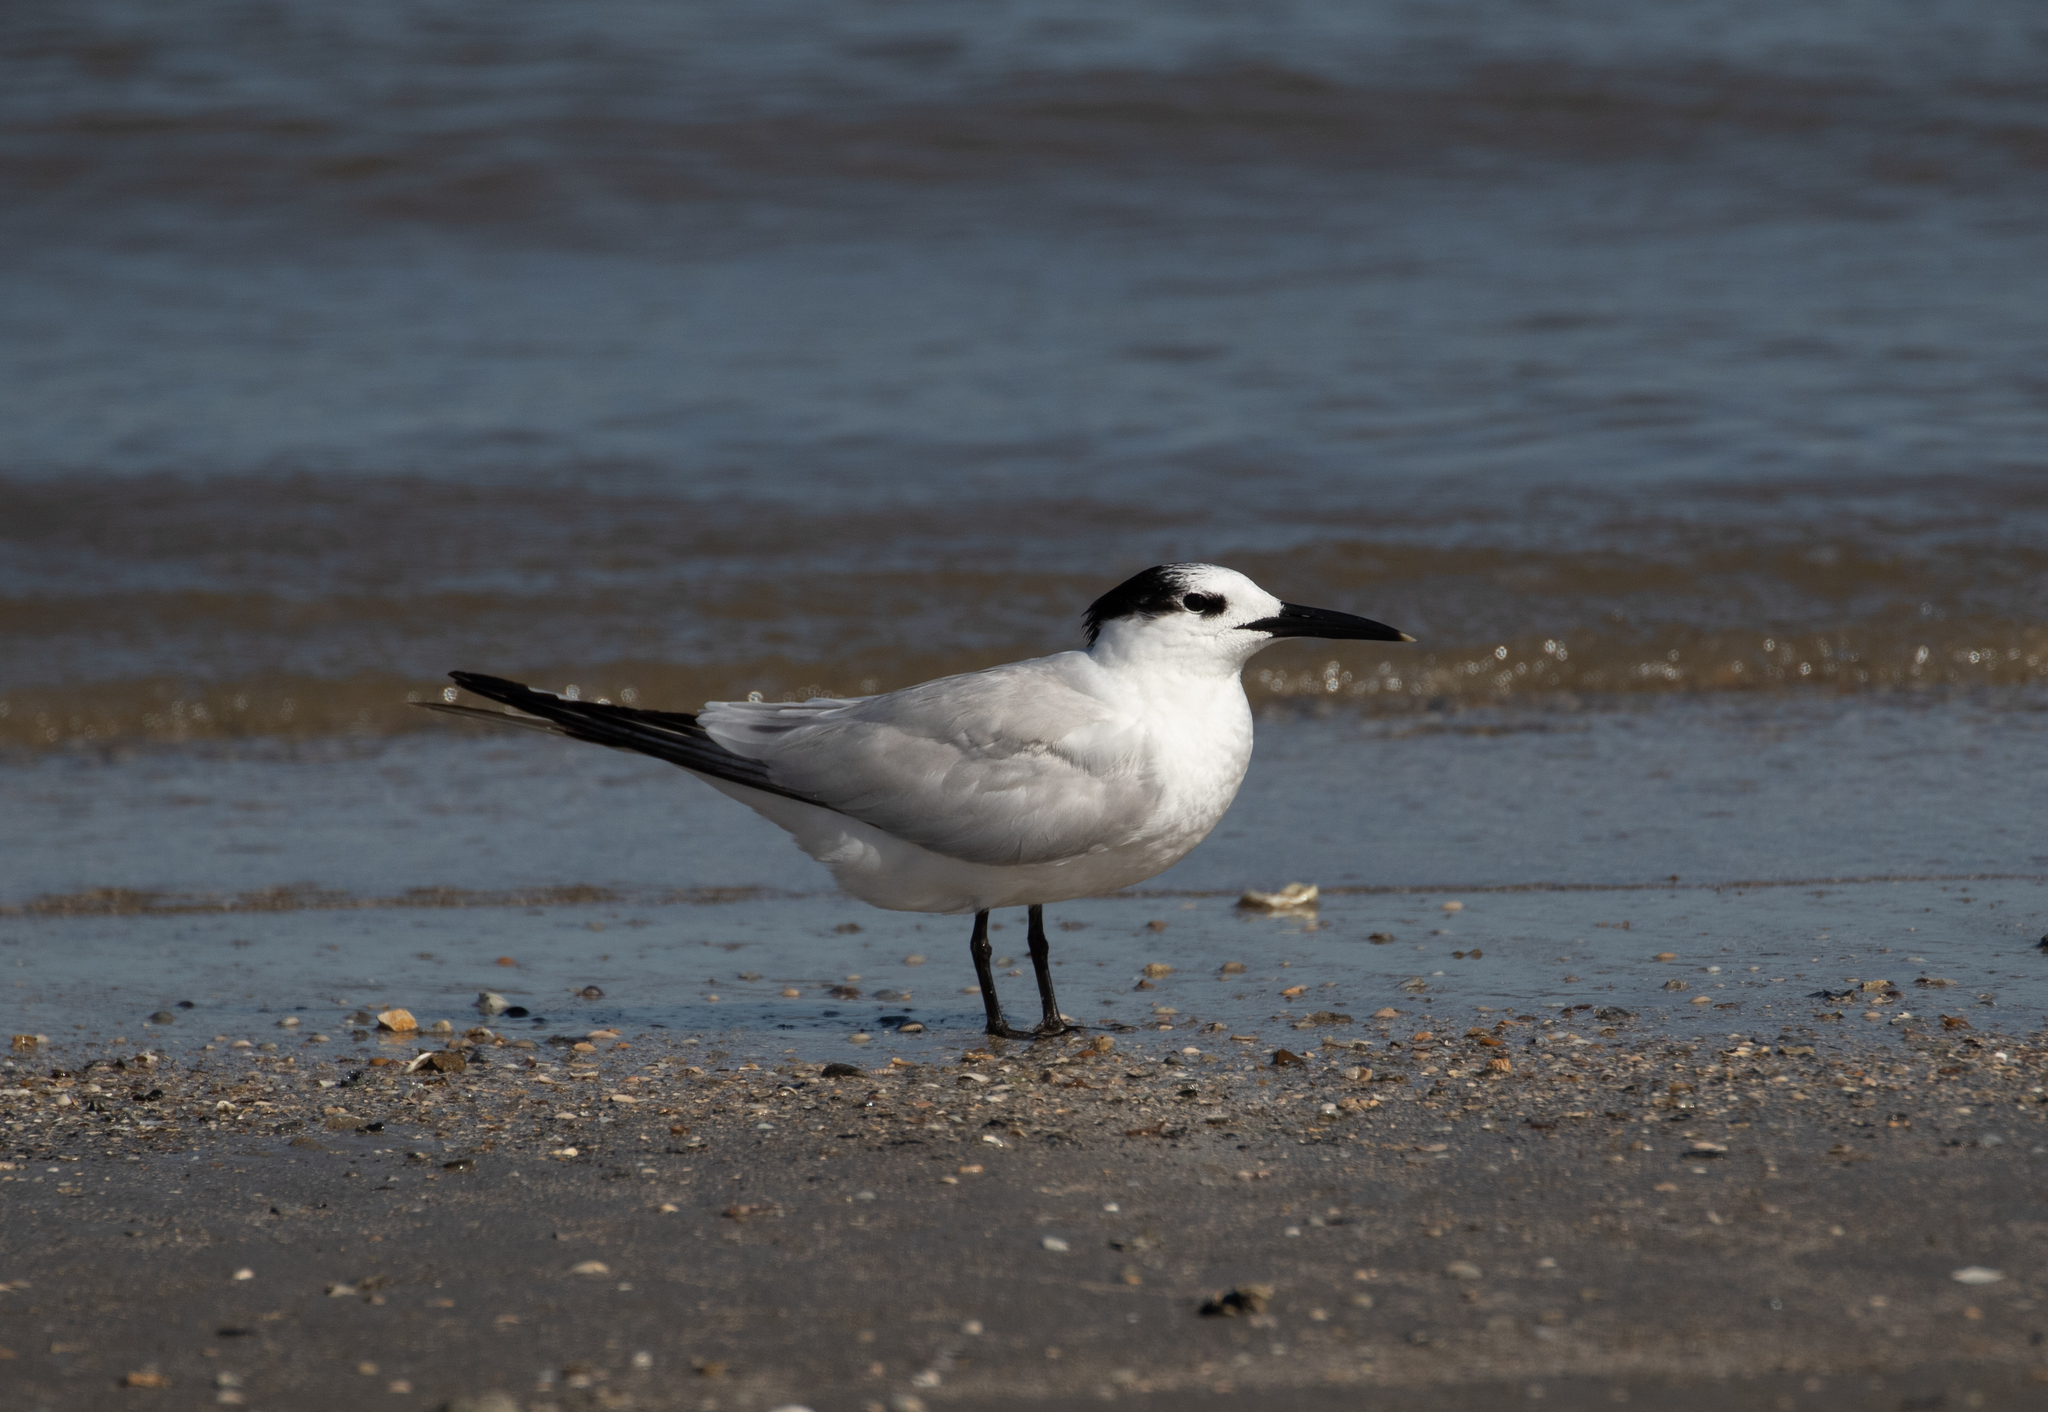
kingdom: Animalia
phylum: Chordata
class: Aves
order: Charadriiformes
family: Laridae
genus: Thalasseus
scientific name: Thalasseus sandvicensis
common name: Sandwich tern
